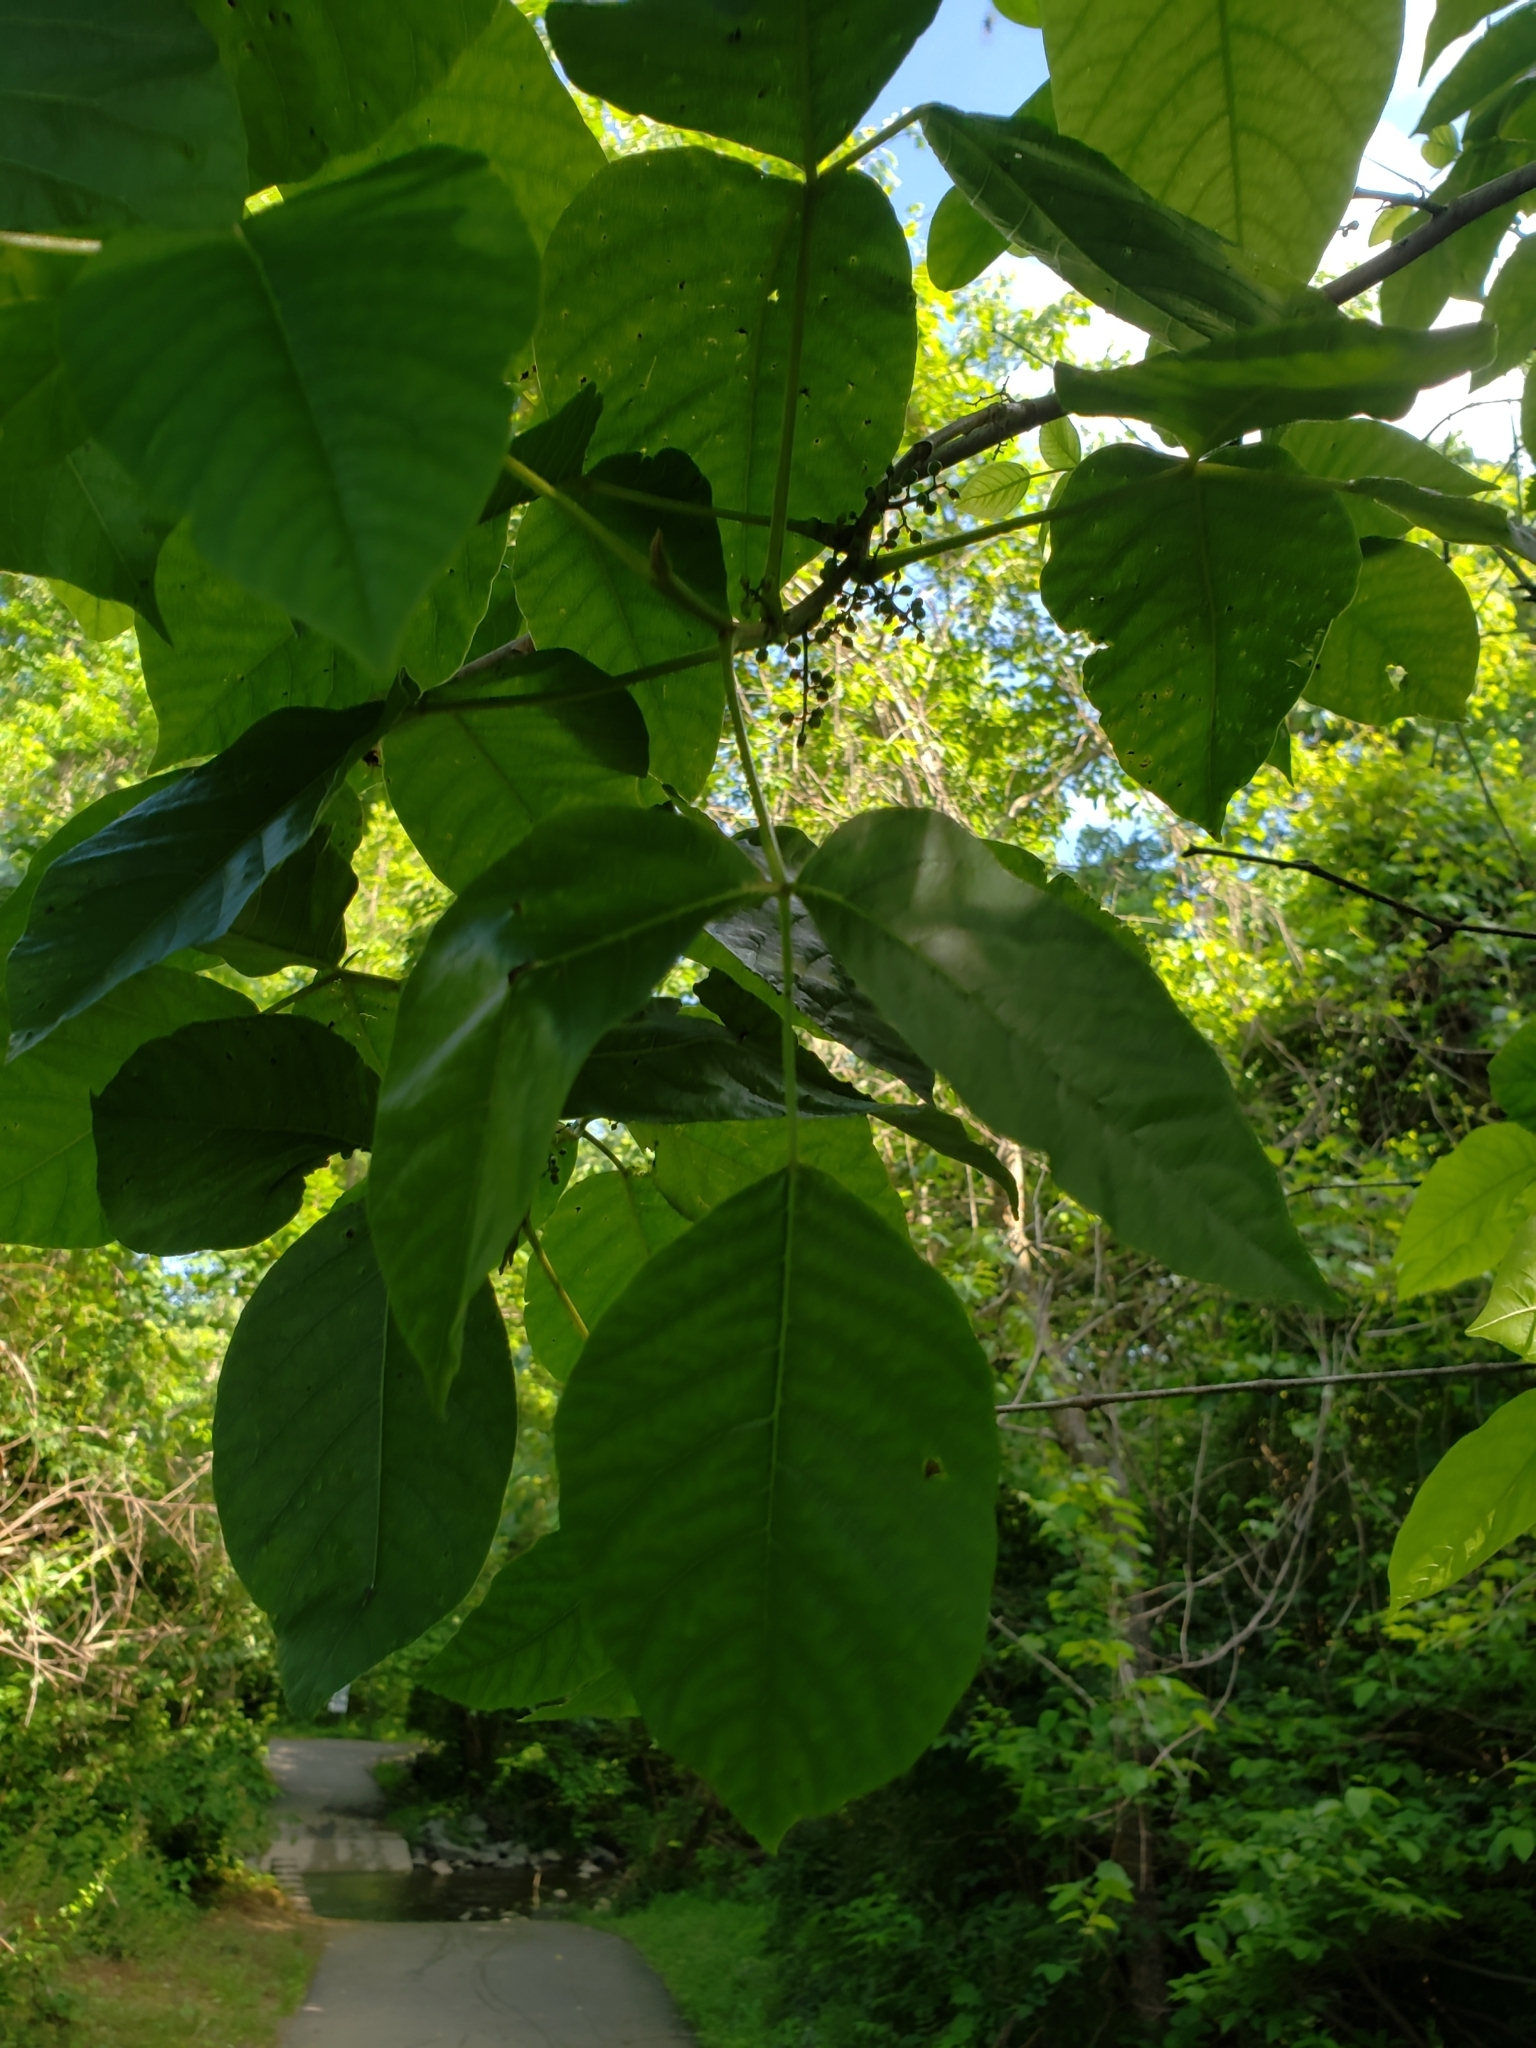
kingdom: Fungi
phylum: Basidiomycota
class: Pucciniomycetes
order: Pucciniales
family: Pileolariaceae
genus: Pileolaria
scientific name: Pileolaria brevipes
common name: Poison ivy rust
